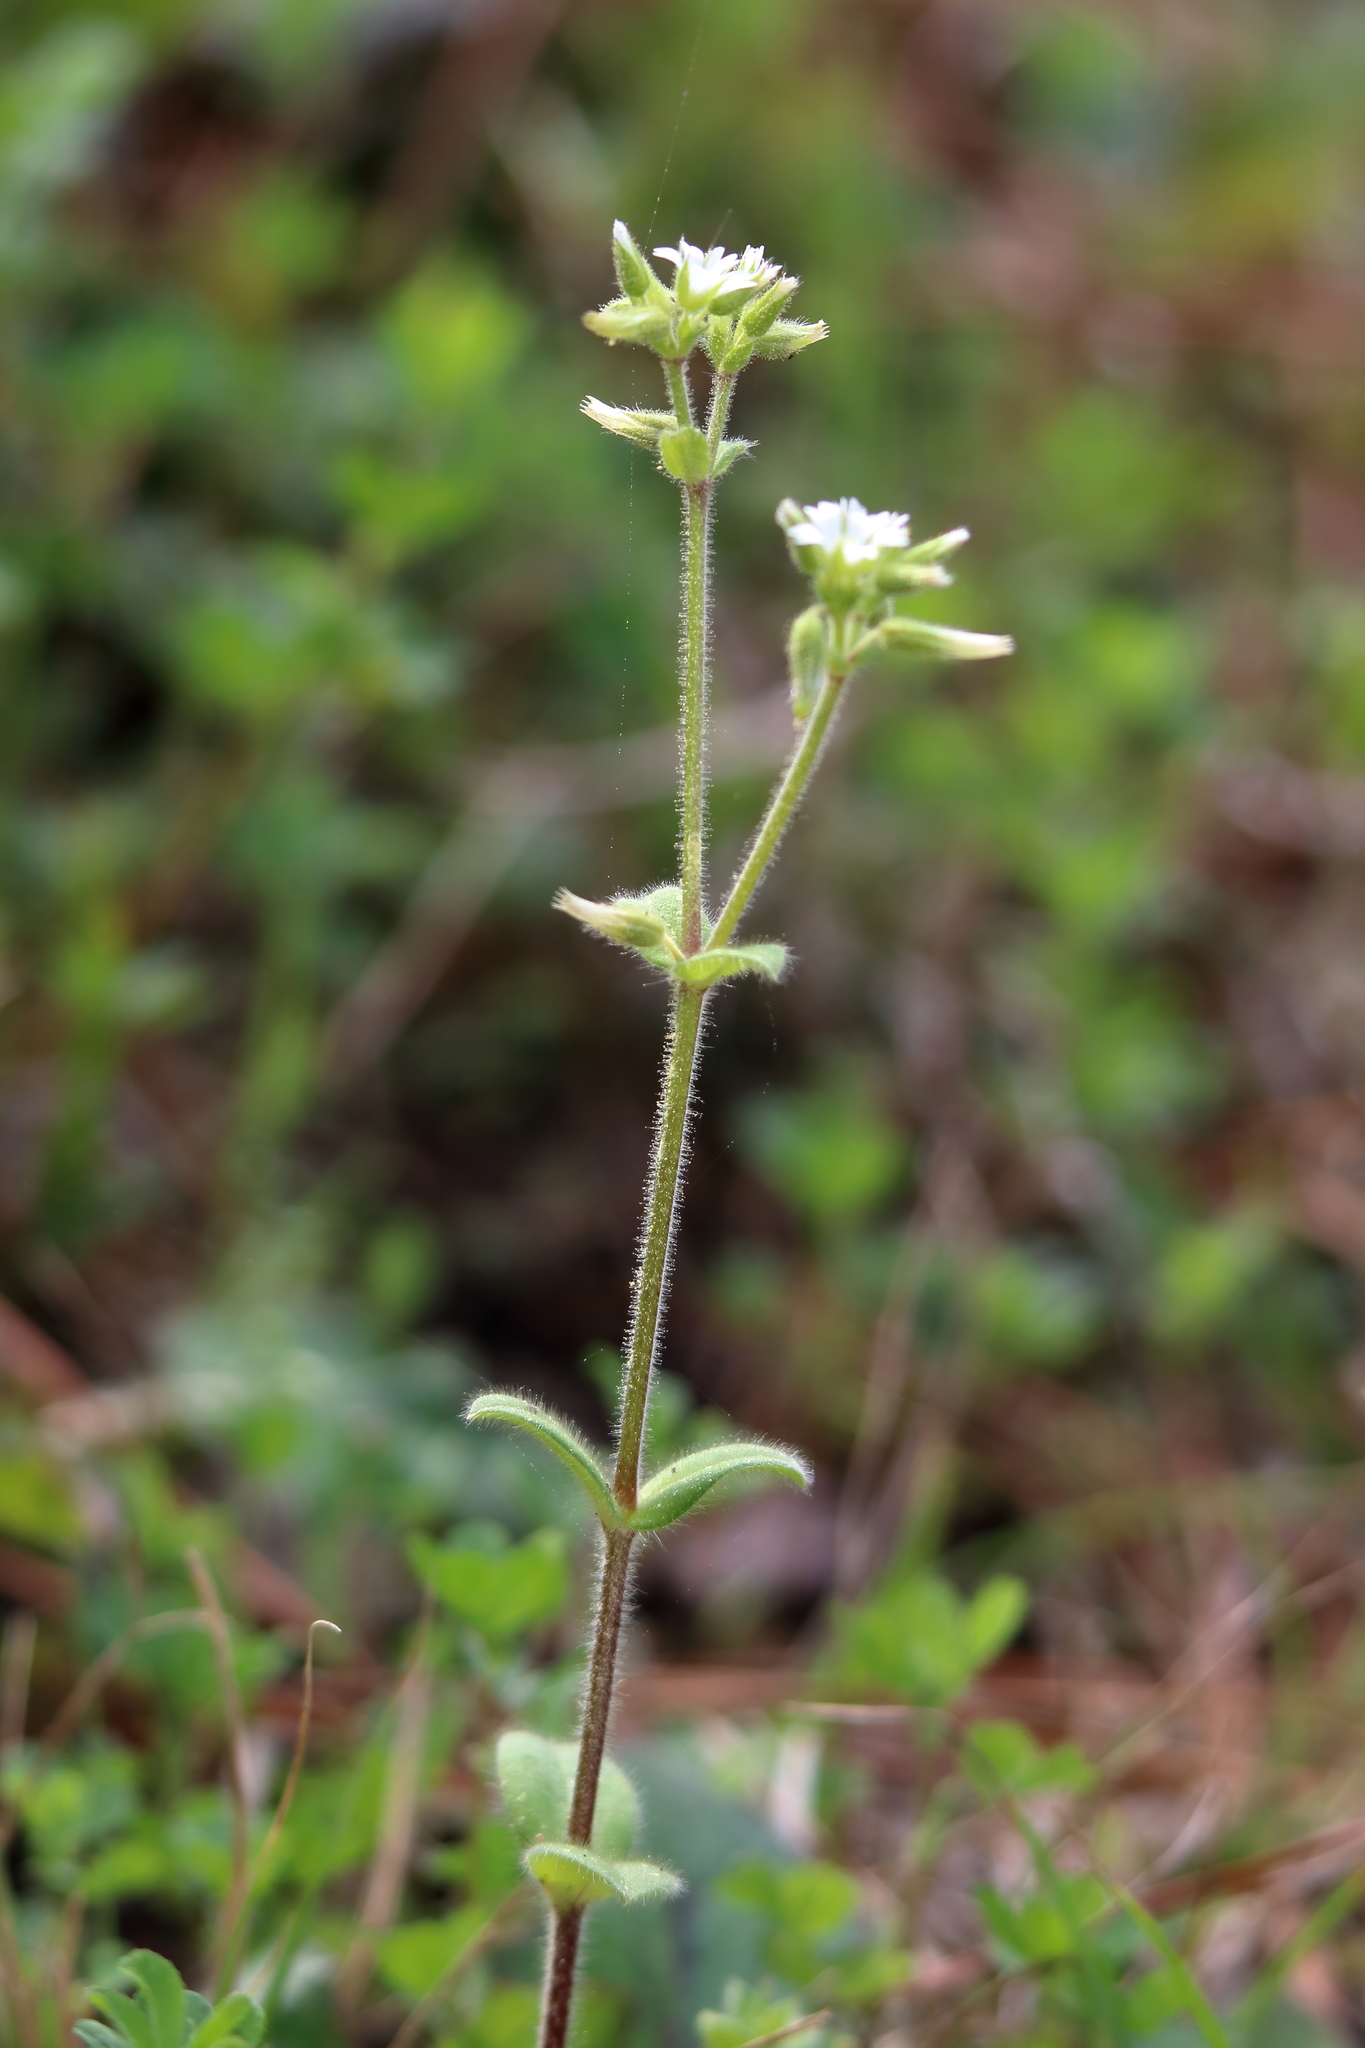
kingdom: Plantae
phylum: Tracheophyta
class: Magnoliopsida
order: Caryophyllales
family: Caryophyllaceae
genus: Cerastium
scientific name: Cerastium glomeratum
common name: Sticky chickweed
